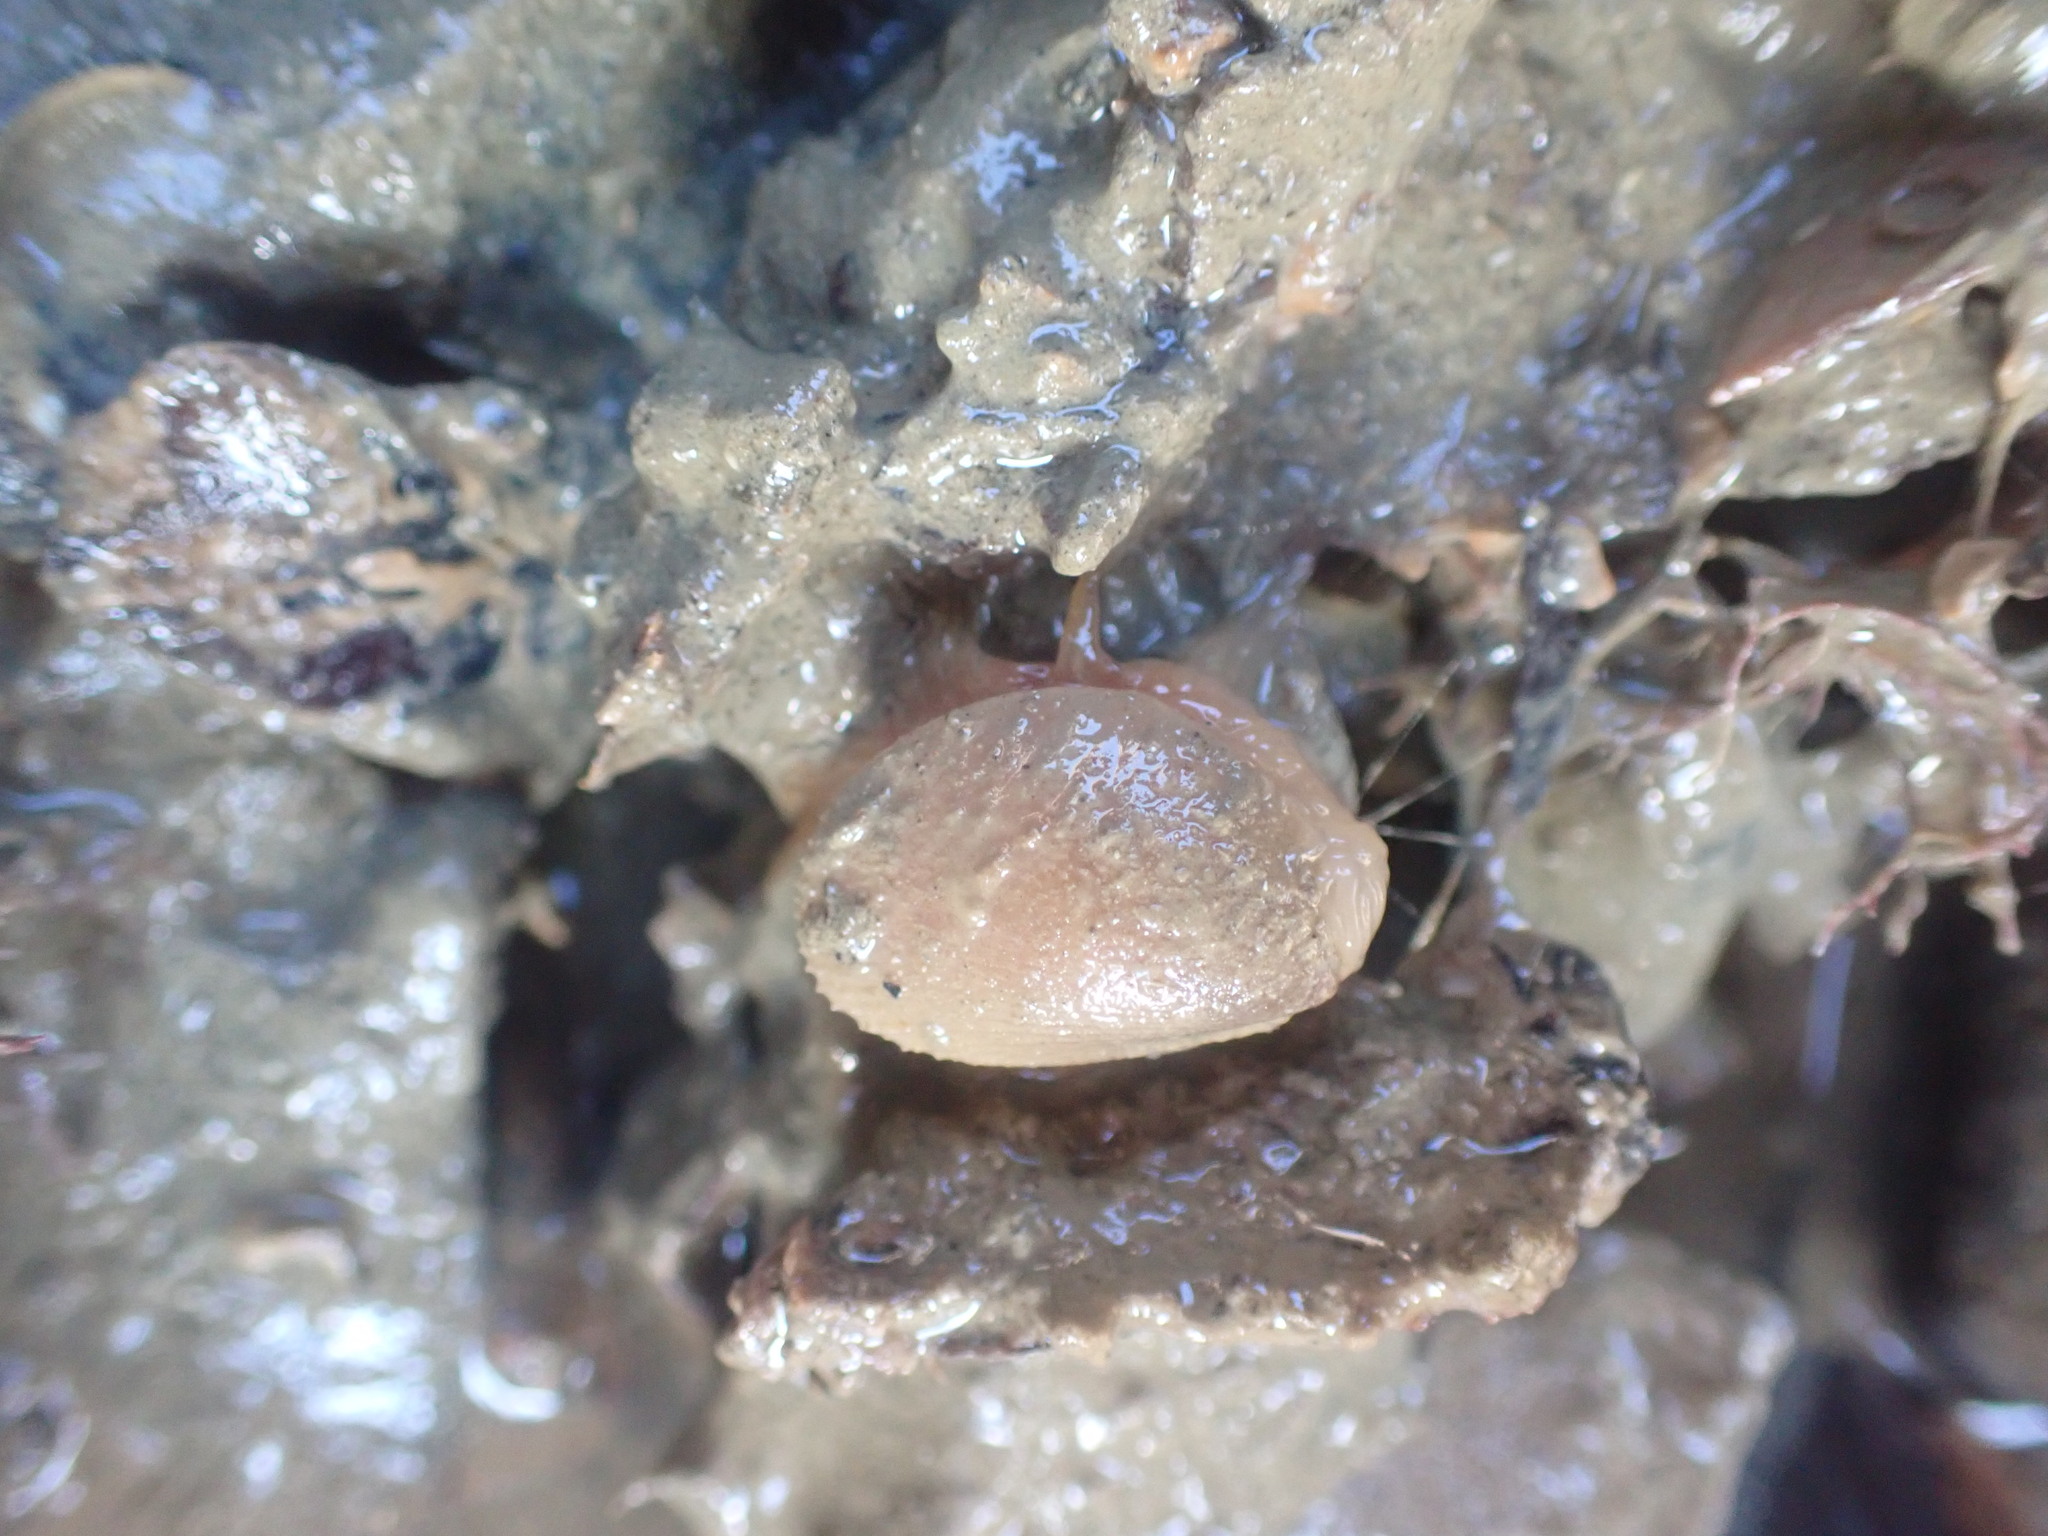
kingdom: Animalia
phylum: Mollusca
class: Bivalvia
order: Limida
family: Limidae
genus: Limaria
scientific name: Limaria orientalis
